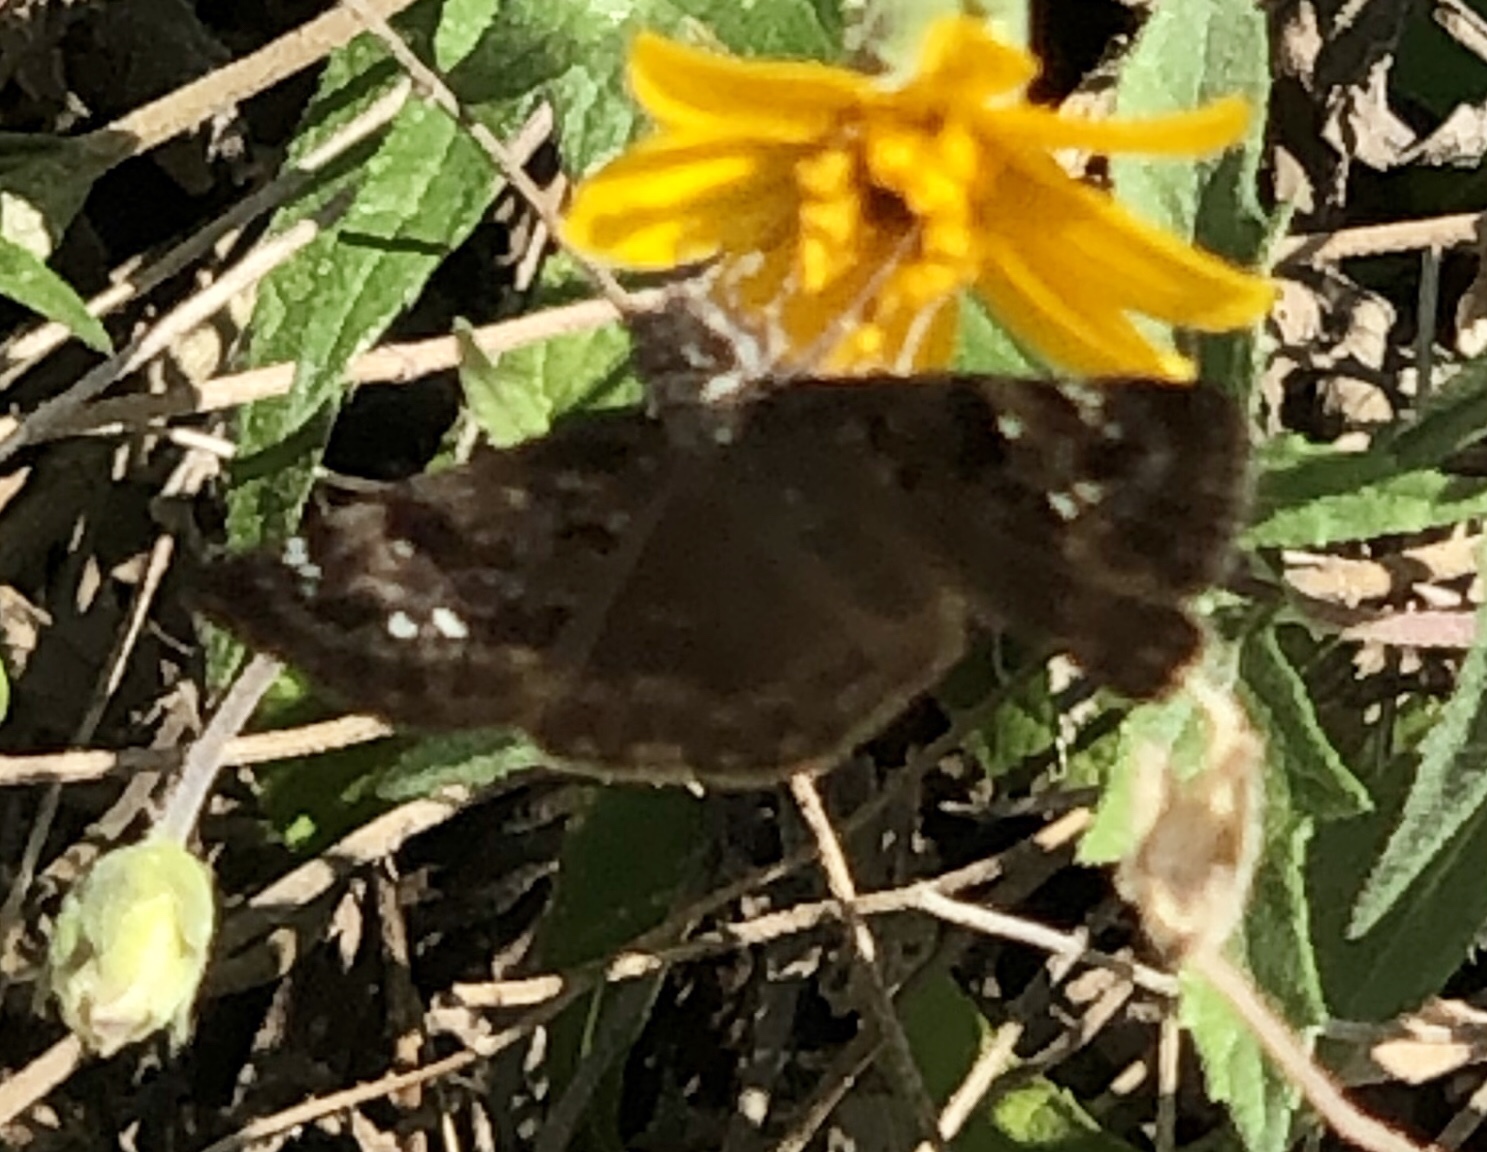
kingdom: Animalia
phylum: Arthropoda
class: Insecta
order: Lepidoptera
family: Hesperiidae
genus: Erynnis
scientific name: Erynnis horatius
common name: Horace's duskywing
